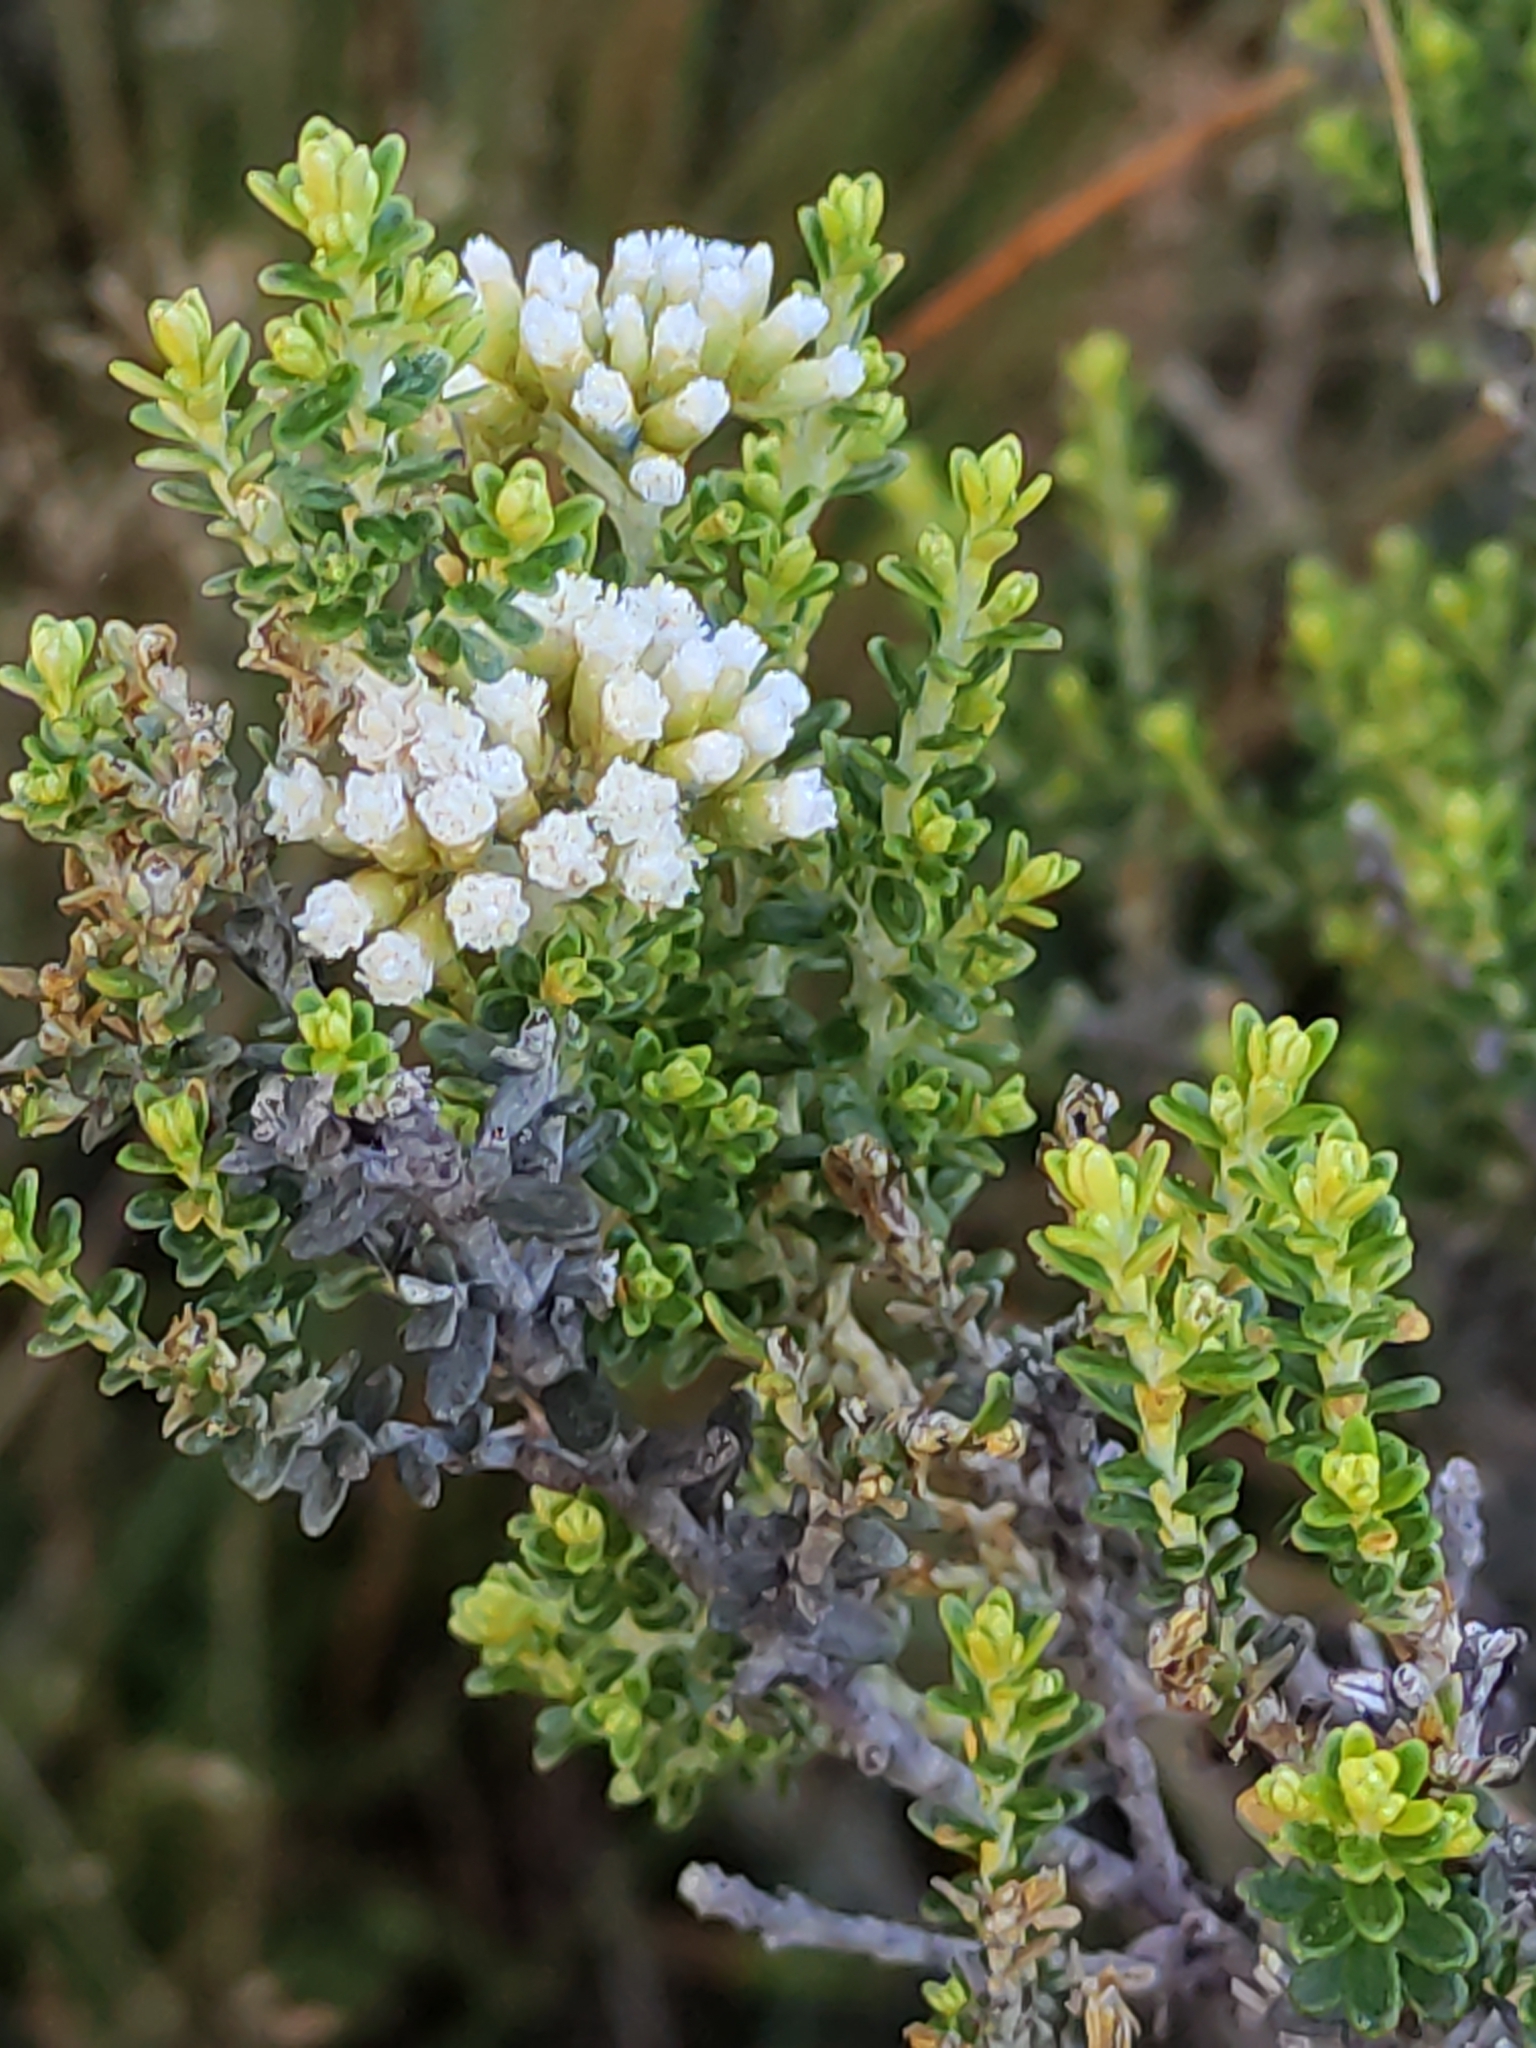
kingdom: Plantae
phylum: Tracheophyta
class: Magnoliopsida
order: Asterales
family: Asteraceae
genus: Ozothamnus
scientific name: Ozothamnus leptophyllus
